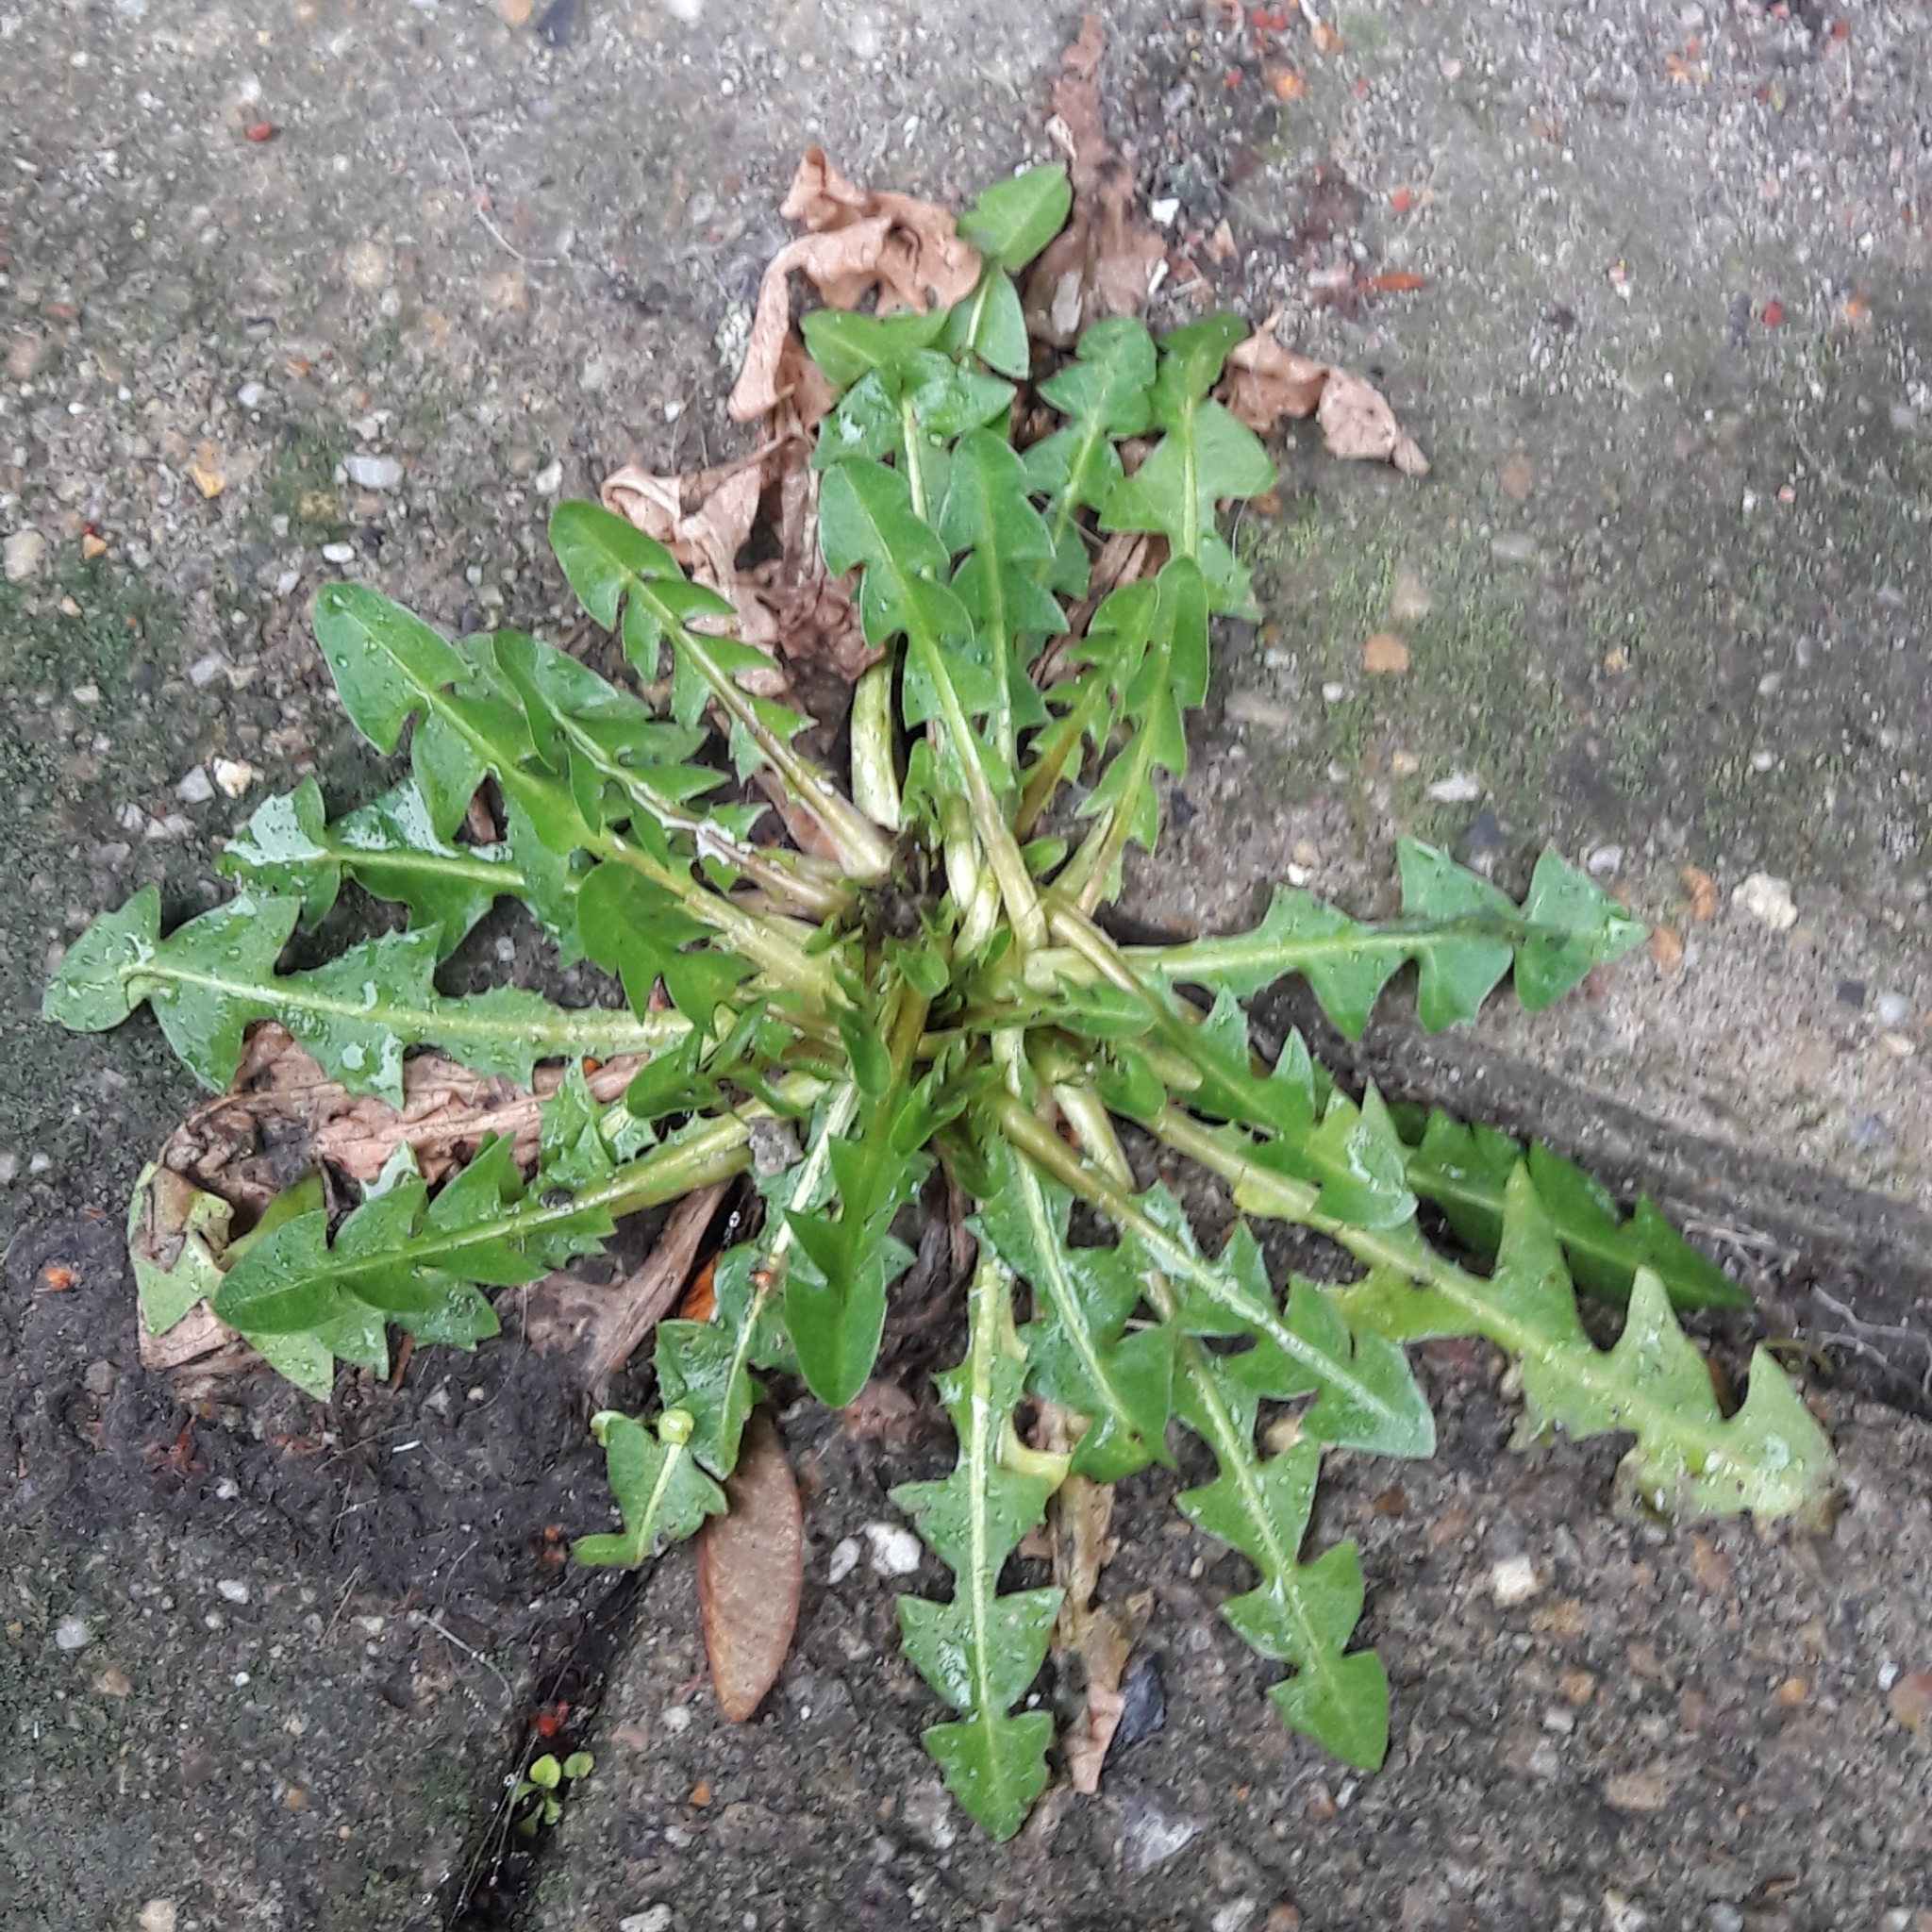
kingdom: Plantae
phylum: Tracheophyta
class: Magnoliopsida
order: Asterales
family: Asteraceae
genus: Taraxacum
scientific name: Taraxacum officinale
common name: Common dandelion
